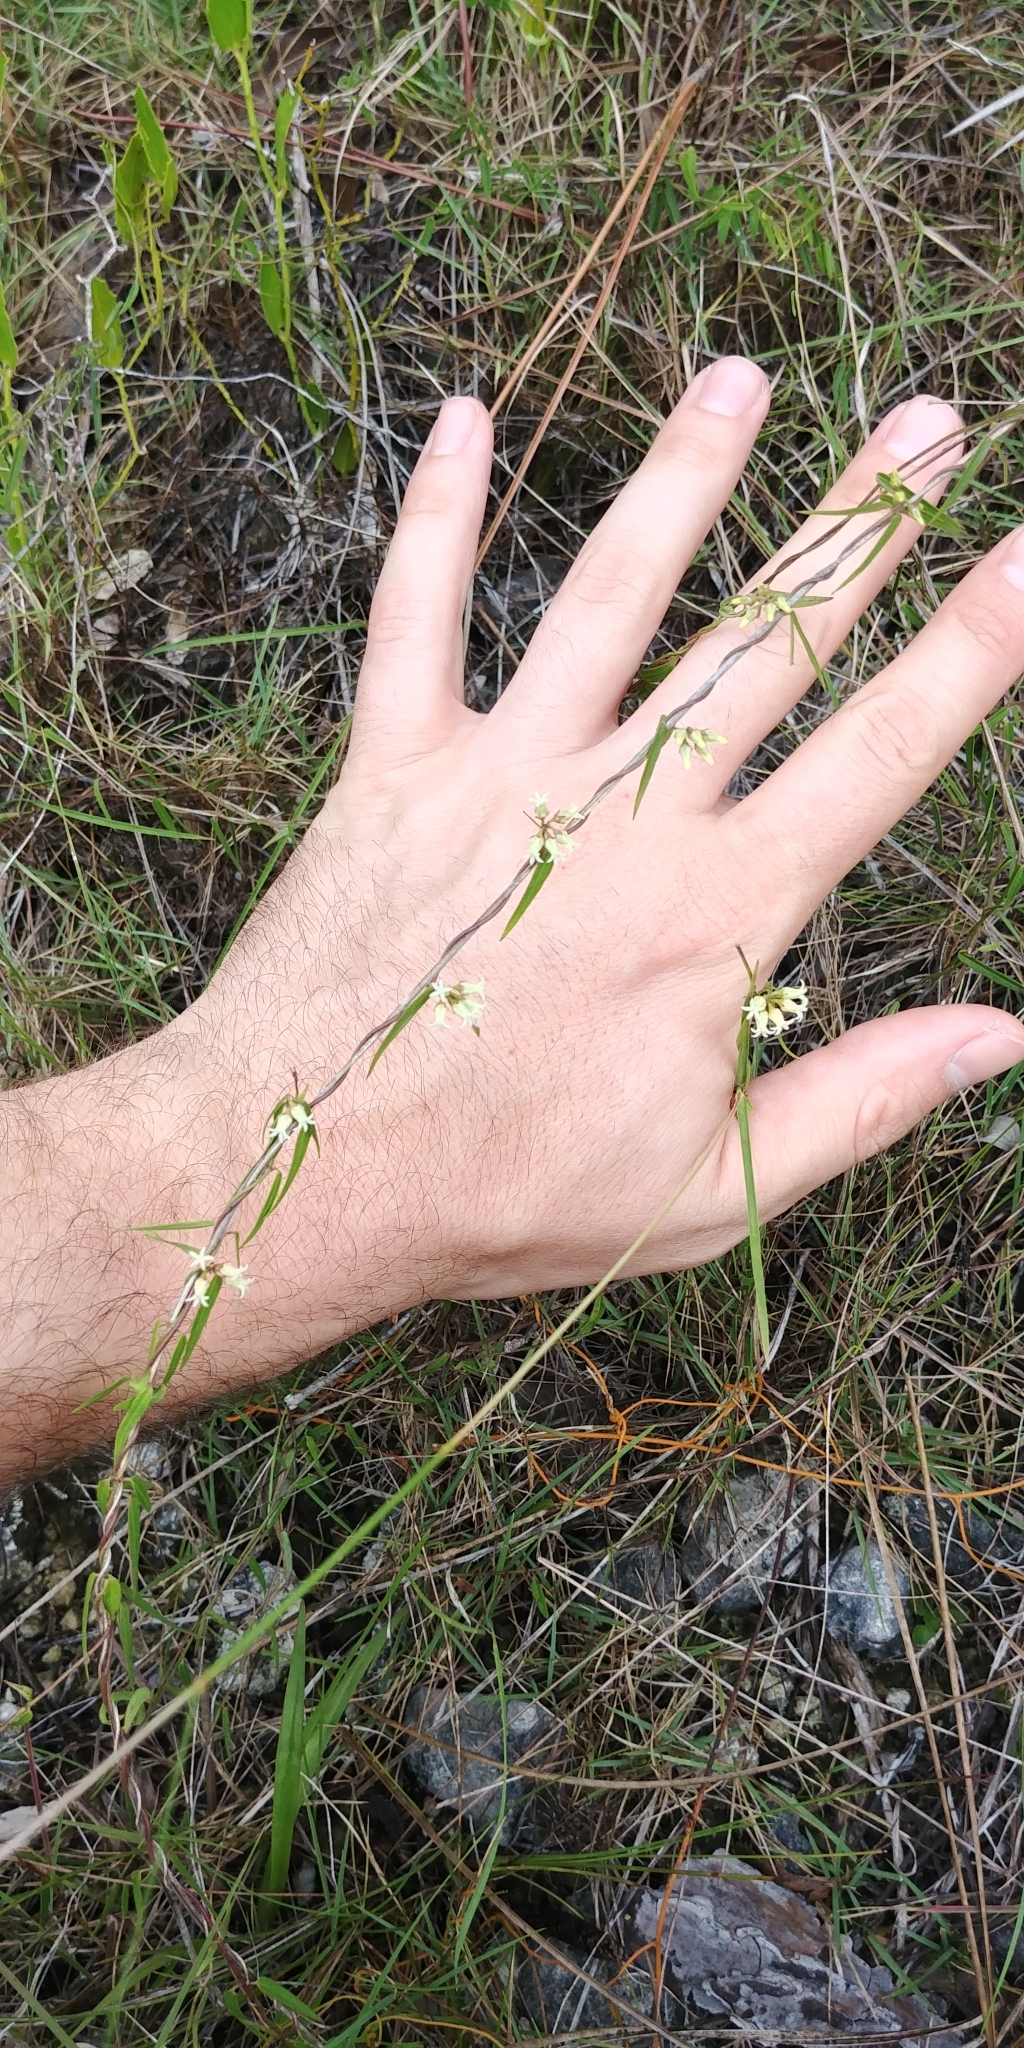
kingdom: Plantae
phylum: Tracheophyta
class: Magnoliopsida
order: Gentianales
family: Apocynaceae
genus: Metastelma
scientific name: Metastelma blodgettii
